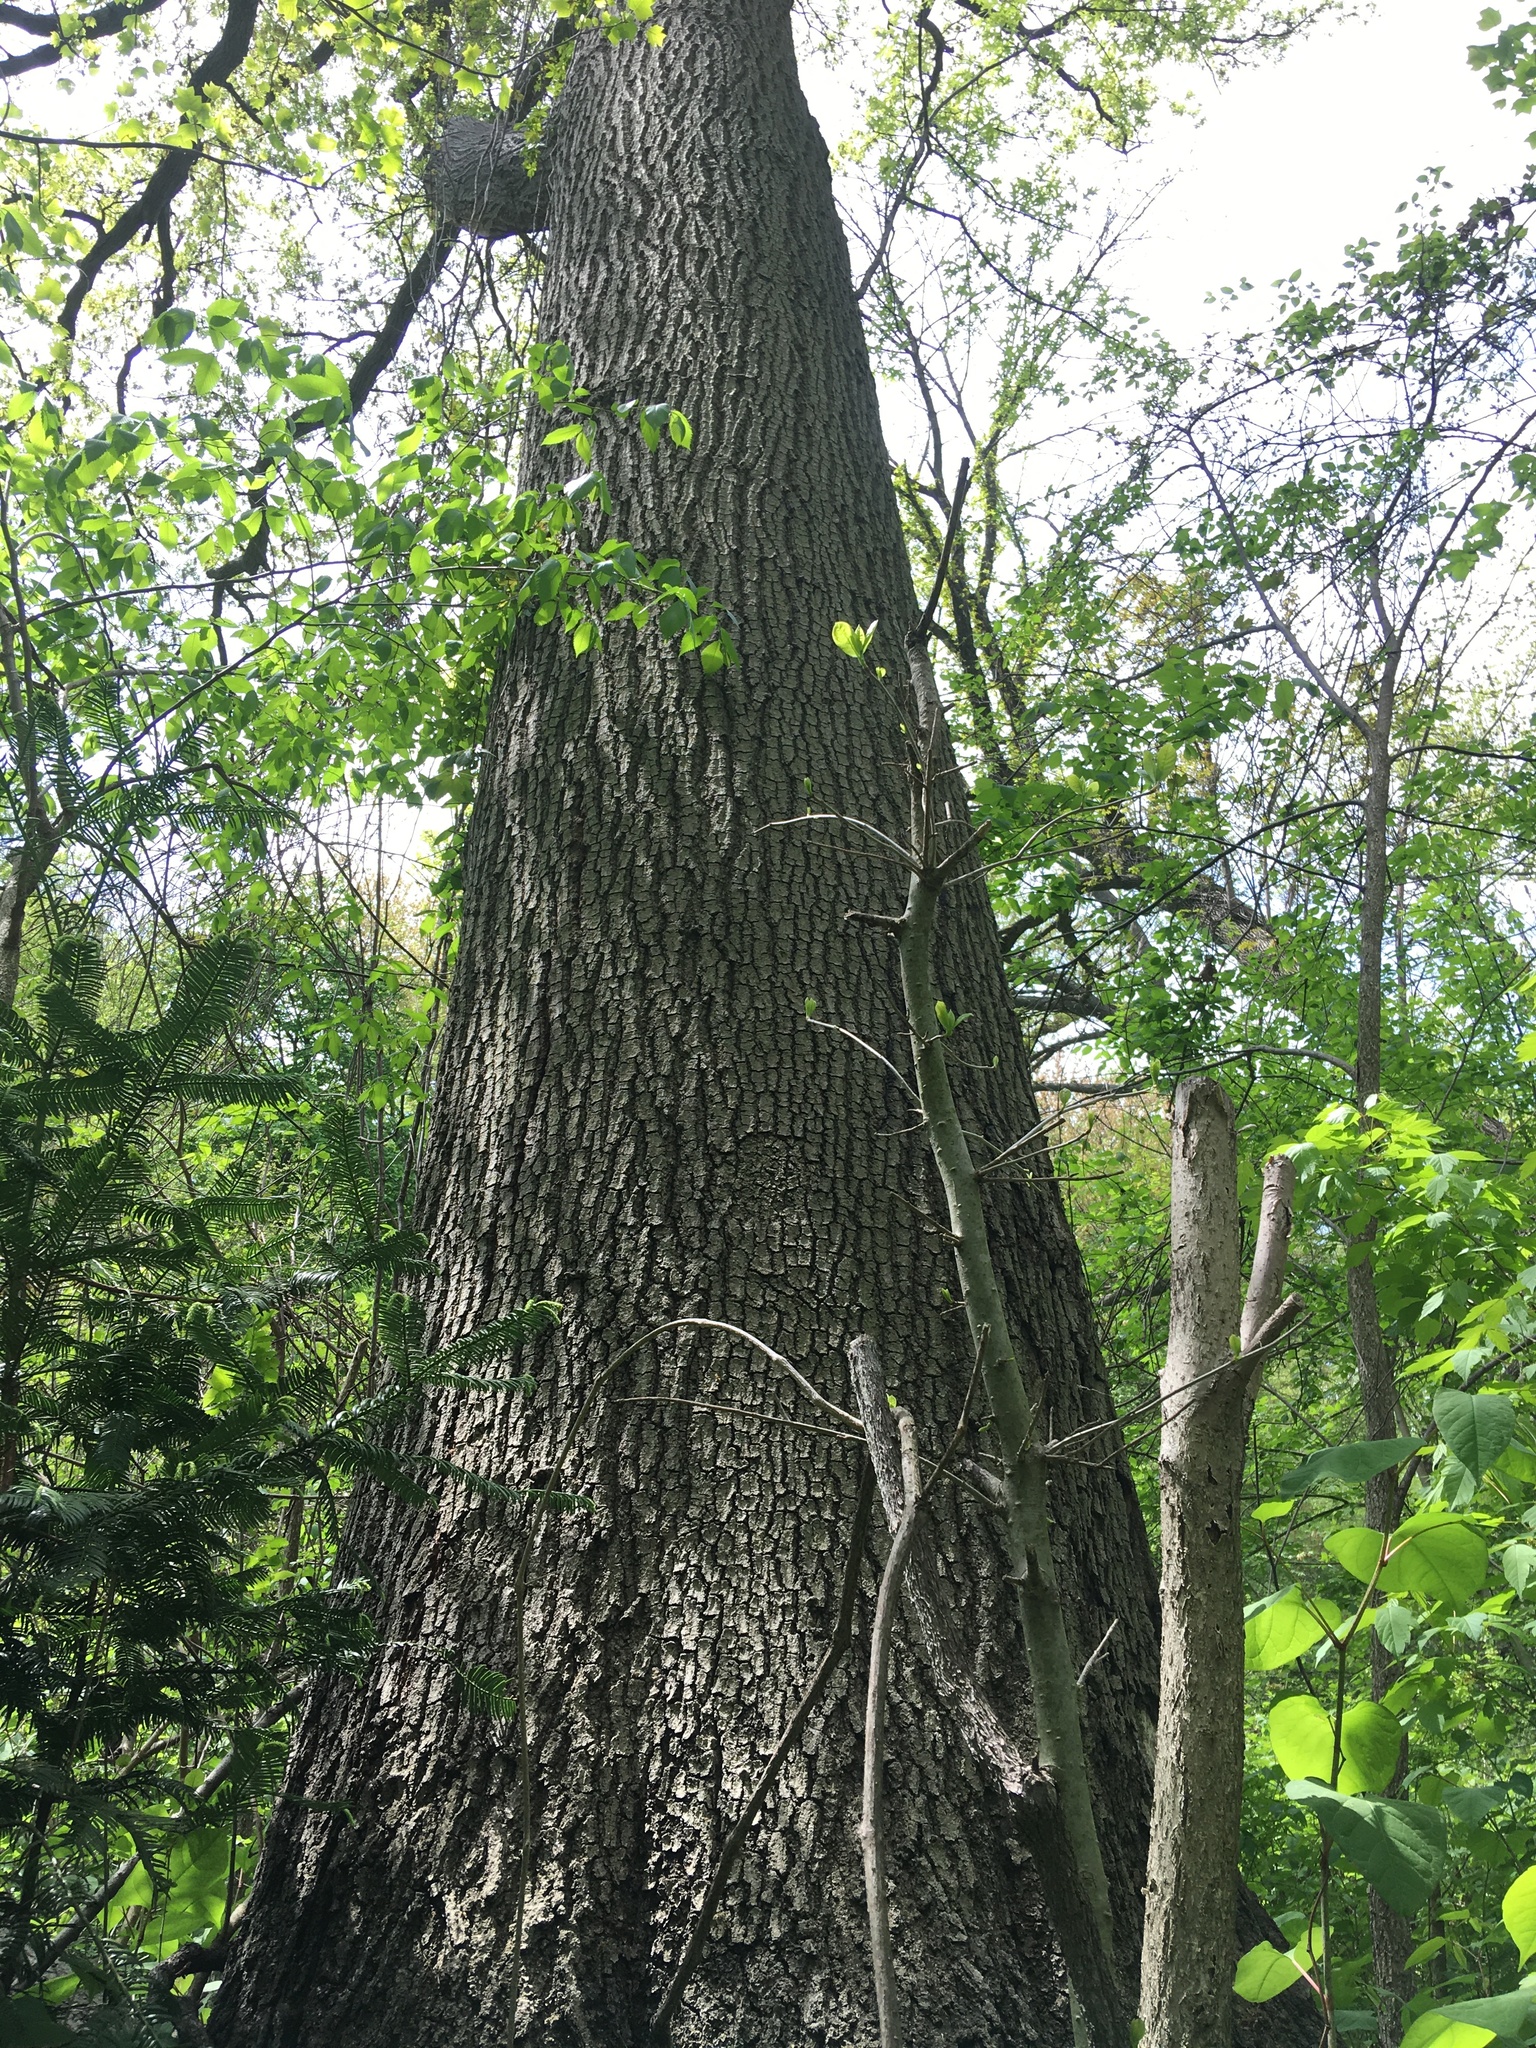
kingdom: Plantae
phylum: Tracheophyta
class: Magnoliopsida
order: Fagales
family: Fagaceae
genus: Quercus
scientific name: Quercus rubra
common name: Red oak
